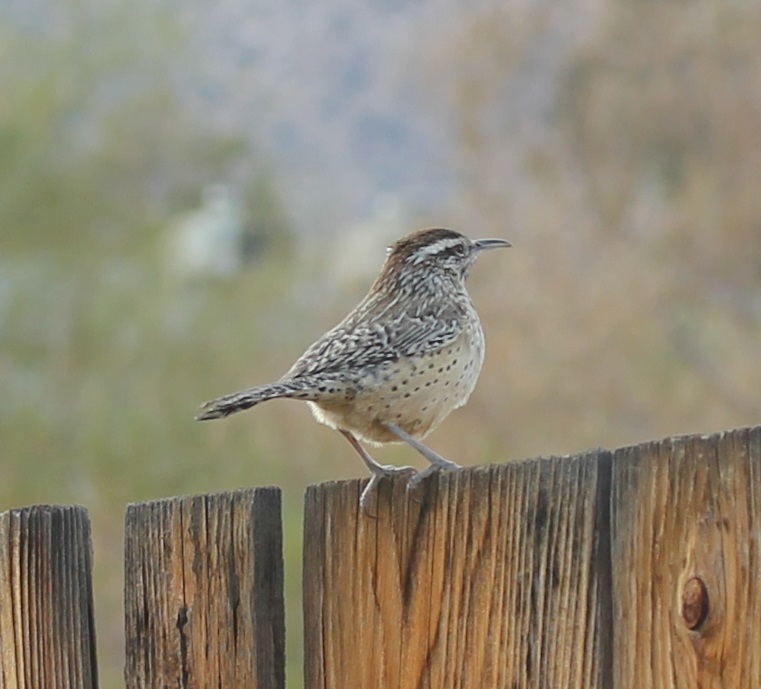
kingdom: Animalia
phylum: Chordata
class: Aves
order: Passeriformes
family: Troglodytidae
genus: Campylorhynchus
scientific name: Campylorhynchus brunneicapillus
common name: Cactus wren
